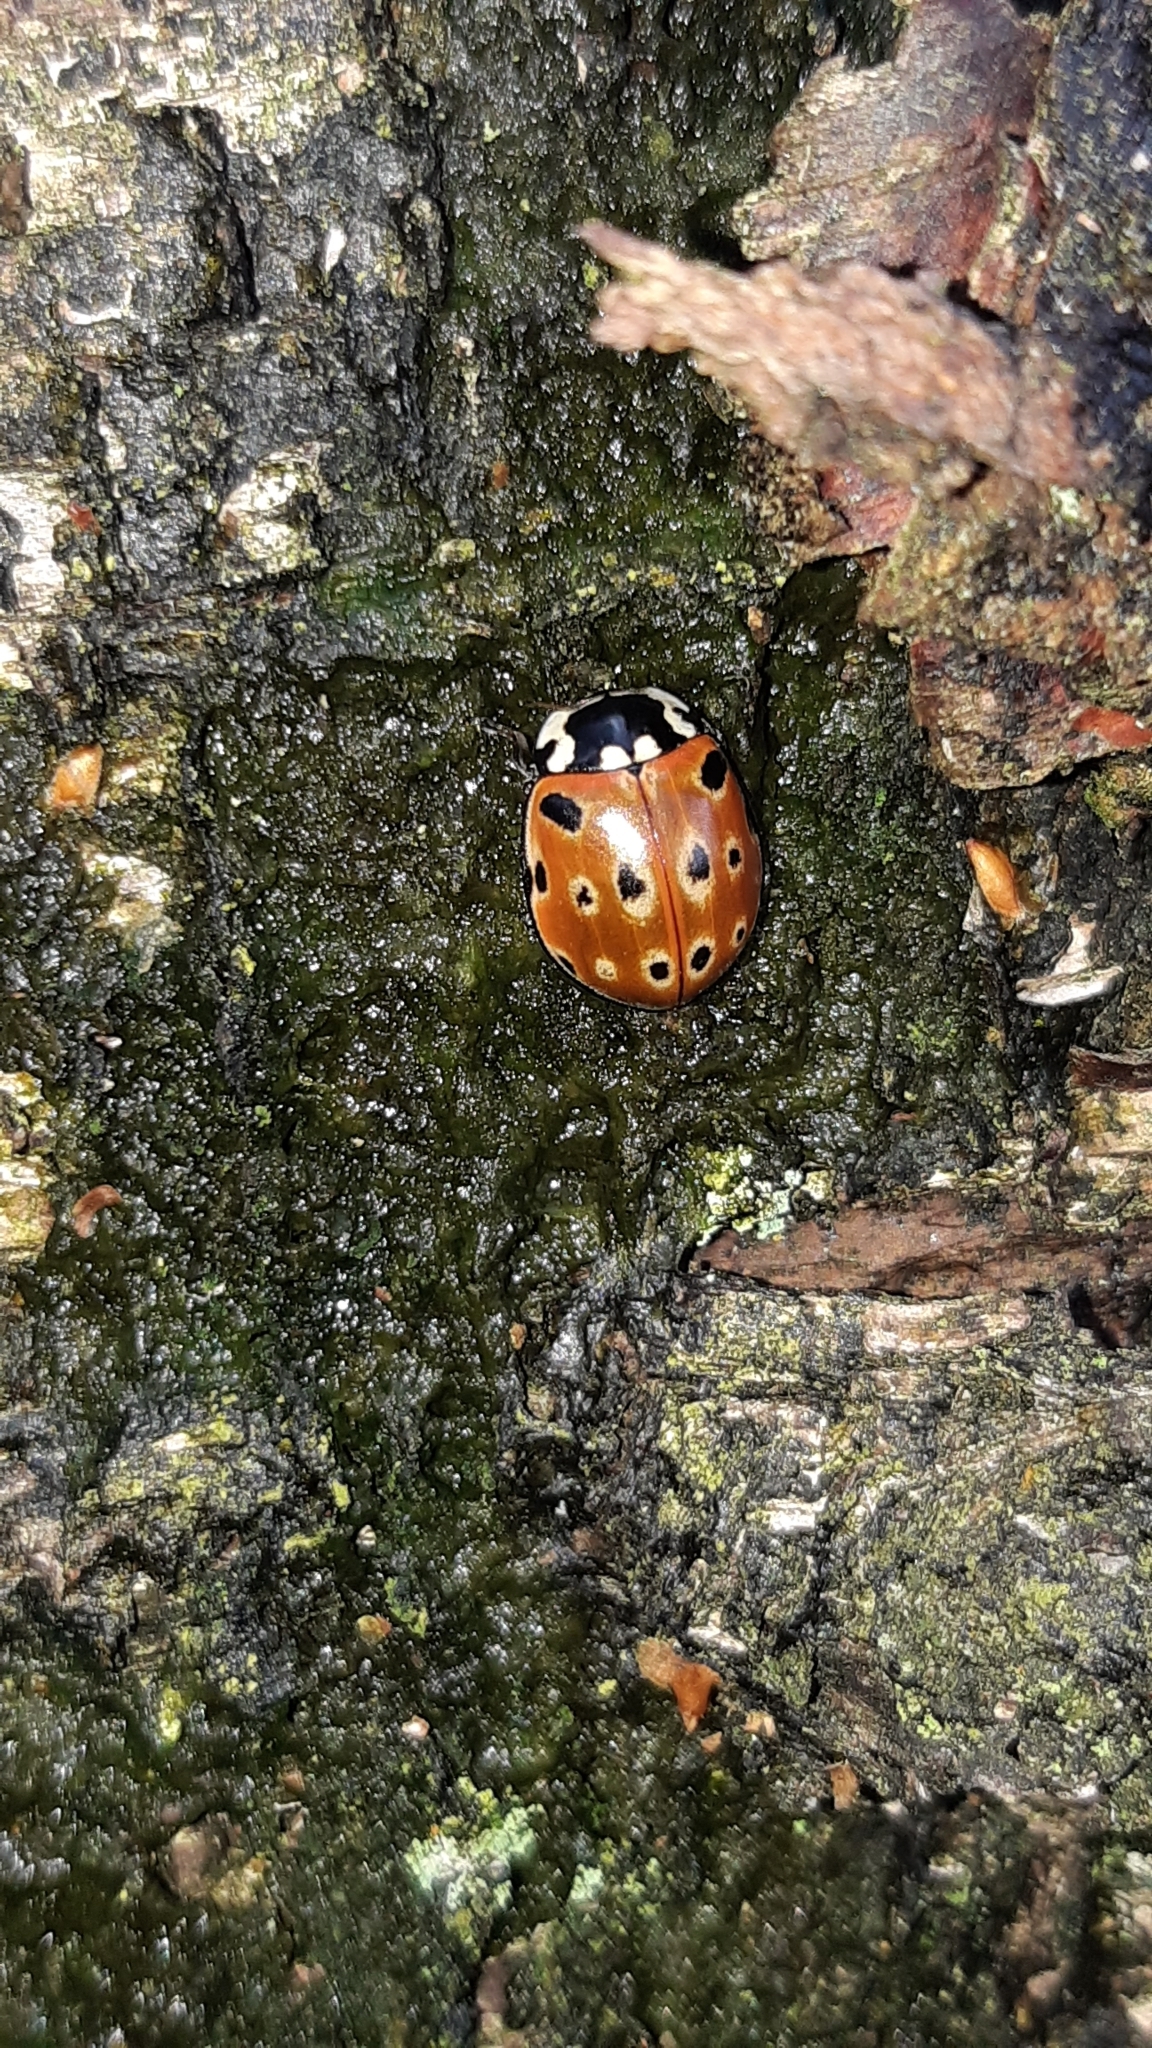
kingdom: Animalia
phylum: Arthropoda
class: Insecta
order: Coleoptera
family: Coccinellidae
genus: Anatis
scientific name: Anatis ocellata
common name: Eyed ladybird
